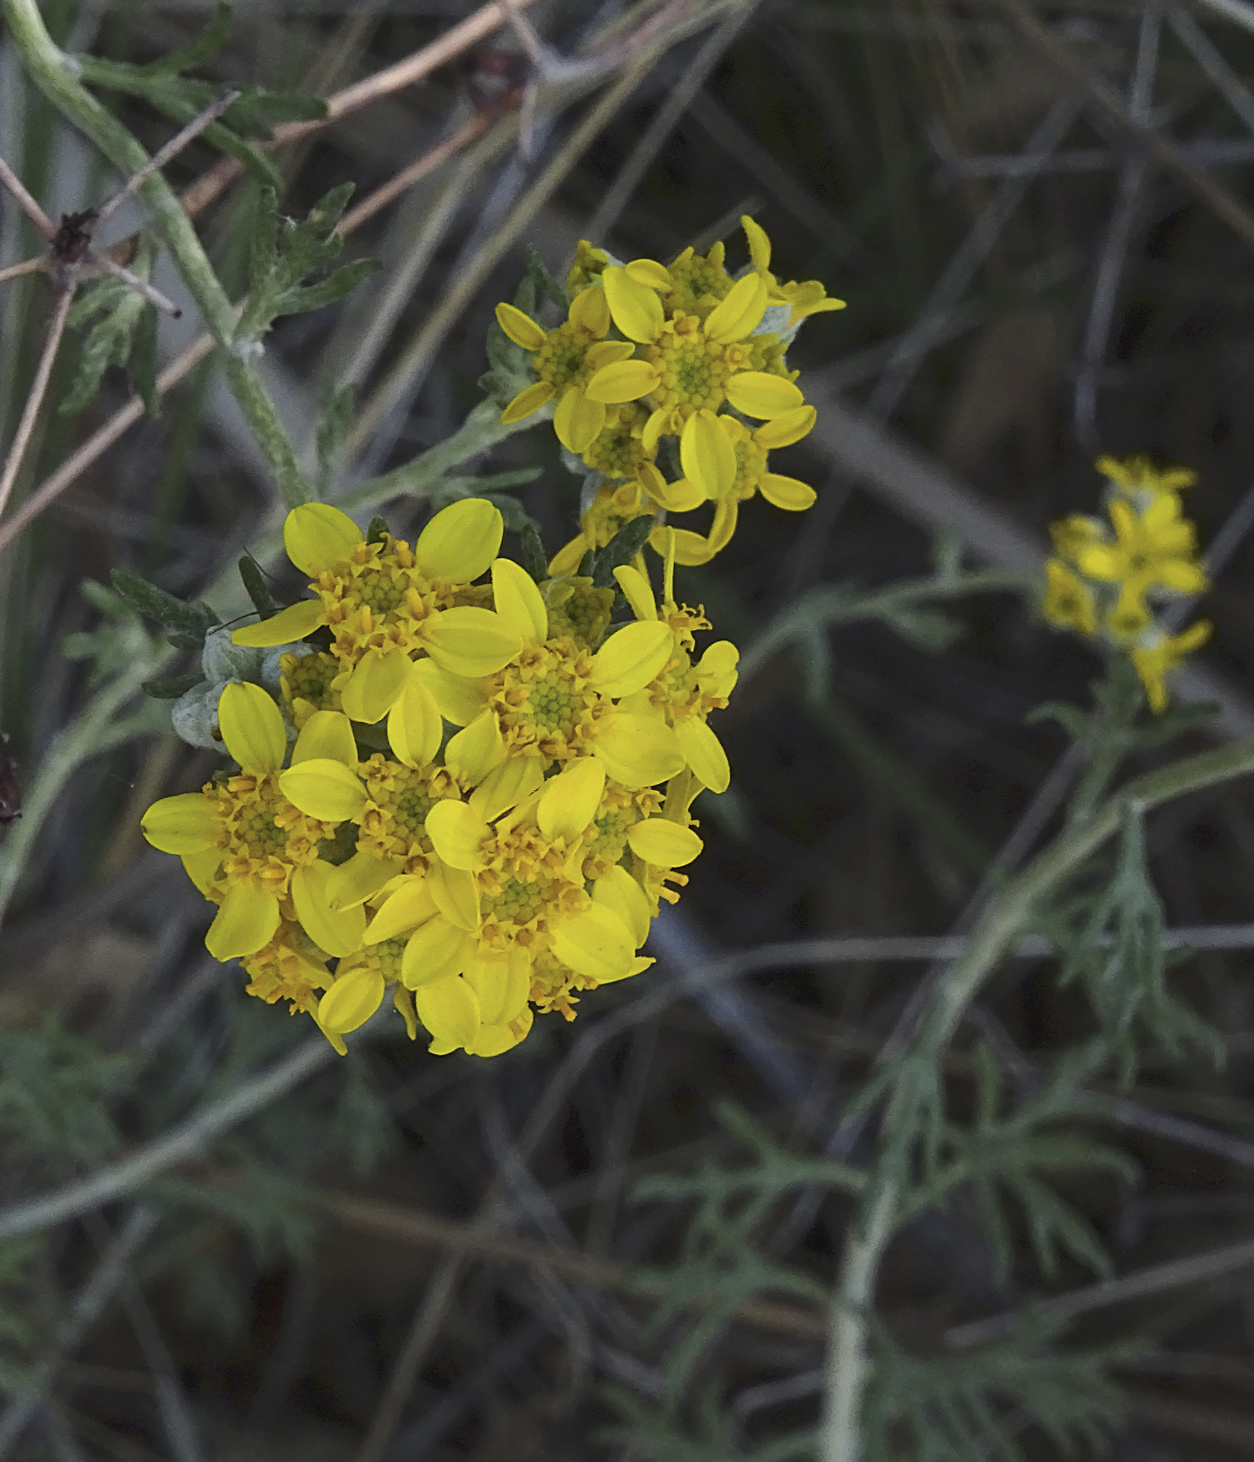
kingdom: Plantae
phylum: Tracheophyta
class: Magnoliopsida
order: Asterales
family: Asteraceae
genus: Eriophyllum
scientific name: Eriophyllum confertiflorum
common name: Golden-yarrow
